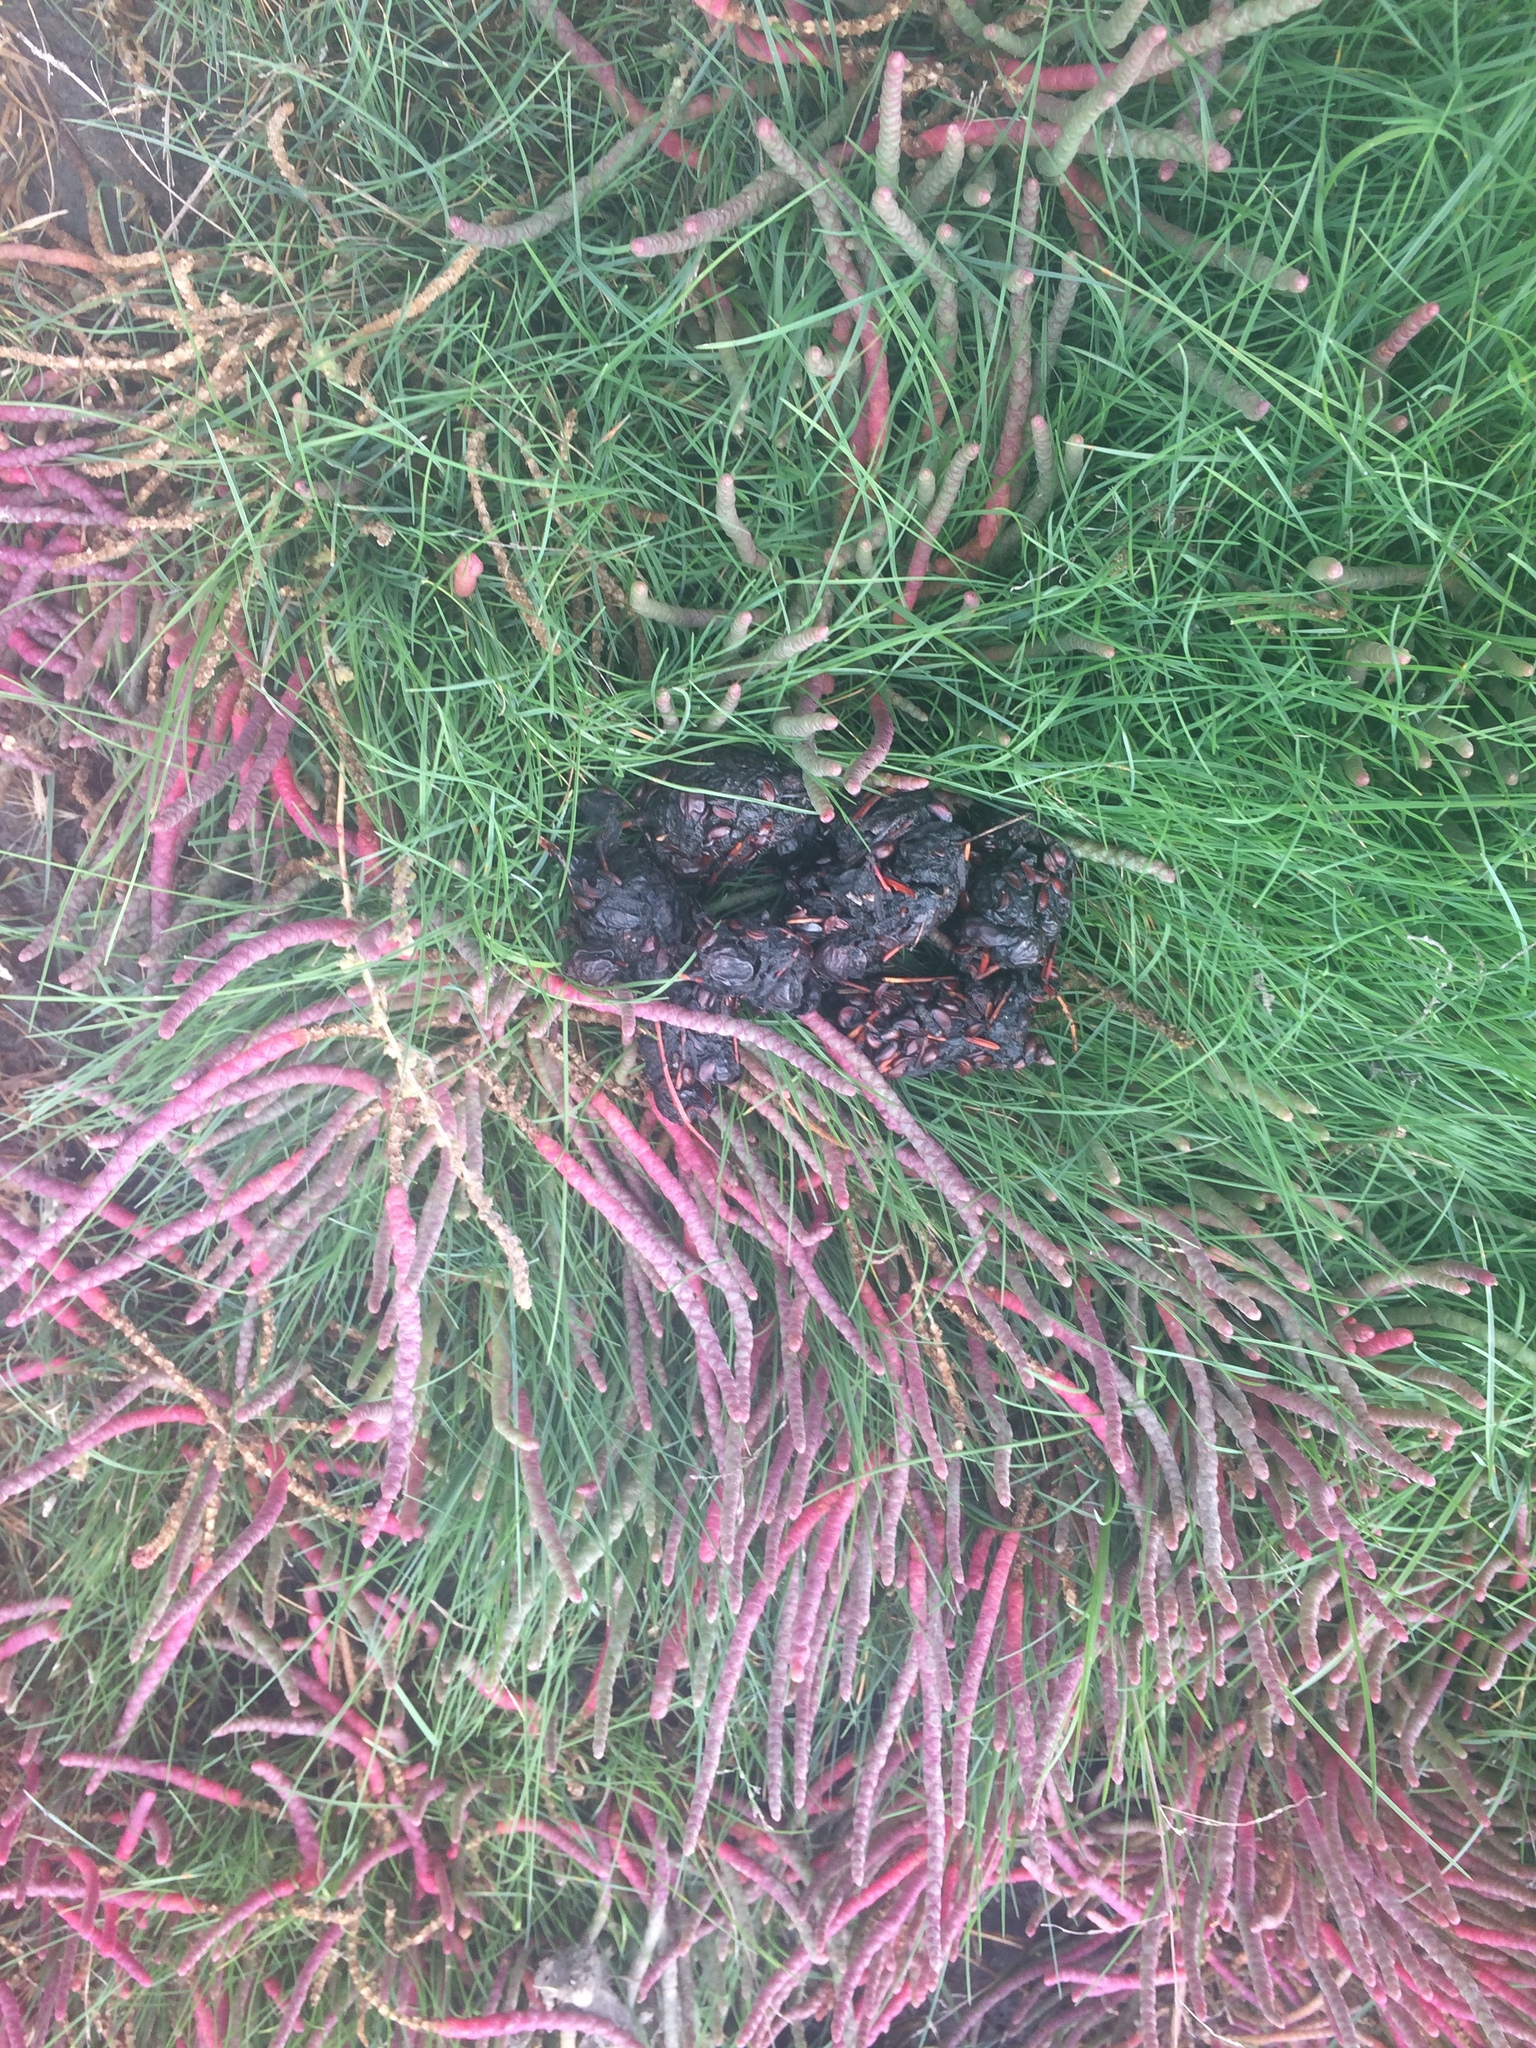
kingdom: Plantae
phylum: Tracheophyta
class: Magnoliopsida
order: Caryophyllales
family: Amaranthaceae
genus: Salicornia
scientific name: Salicornia rubra
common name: Red glasswort
